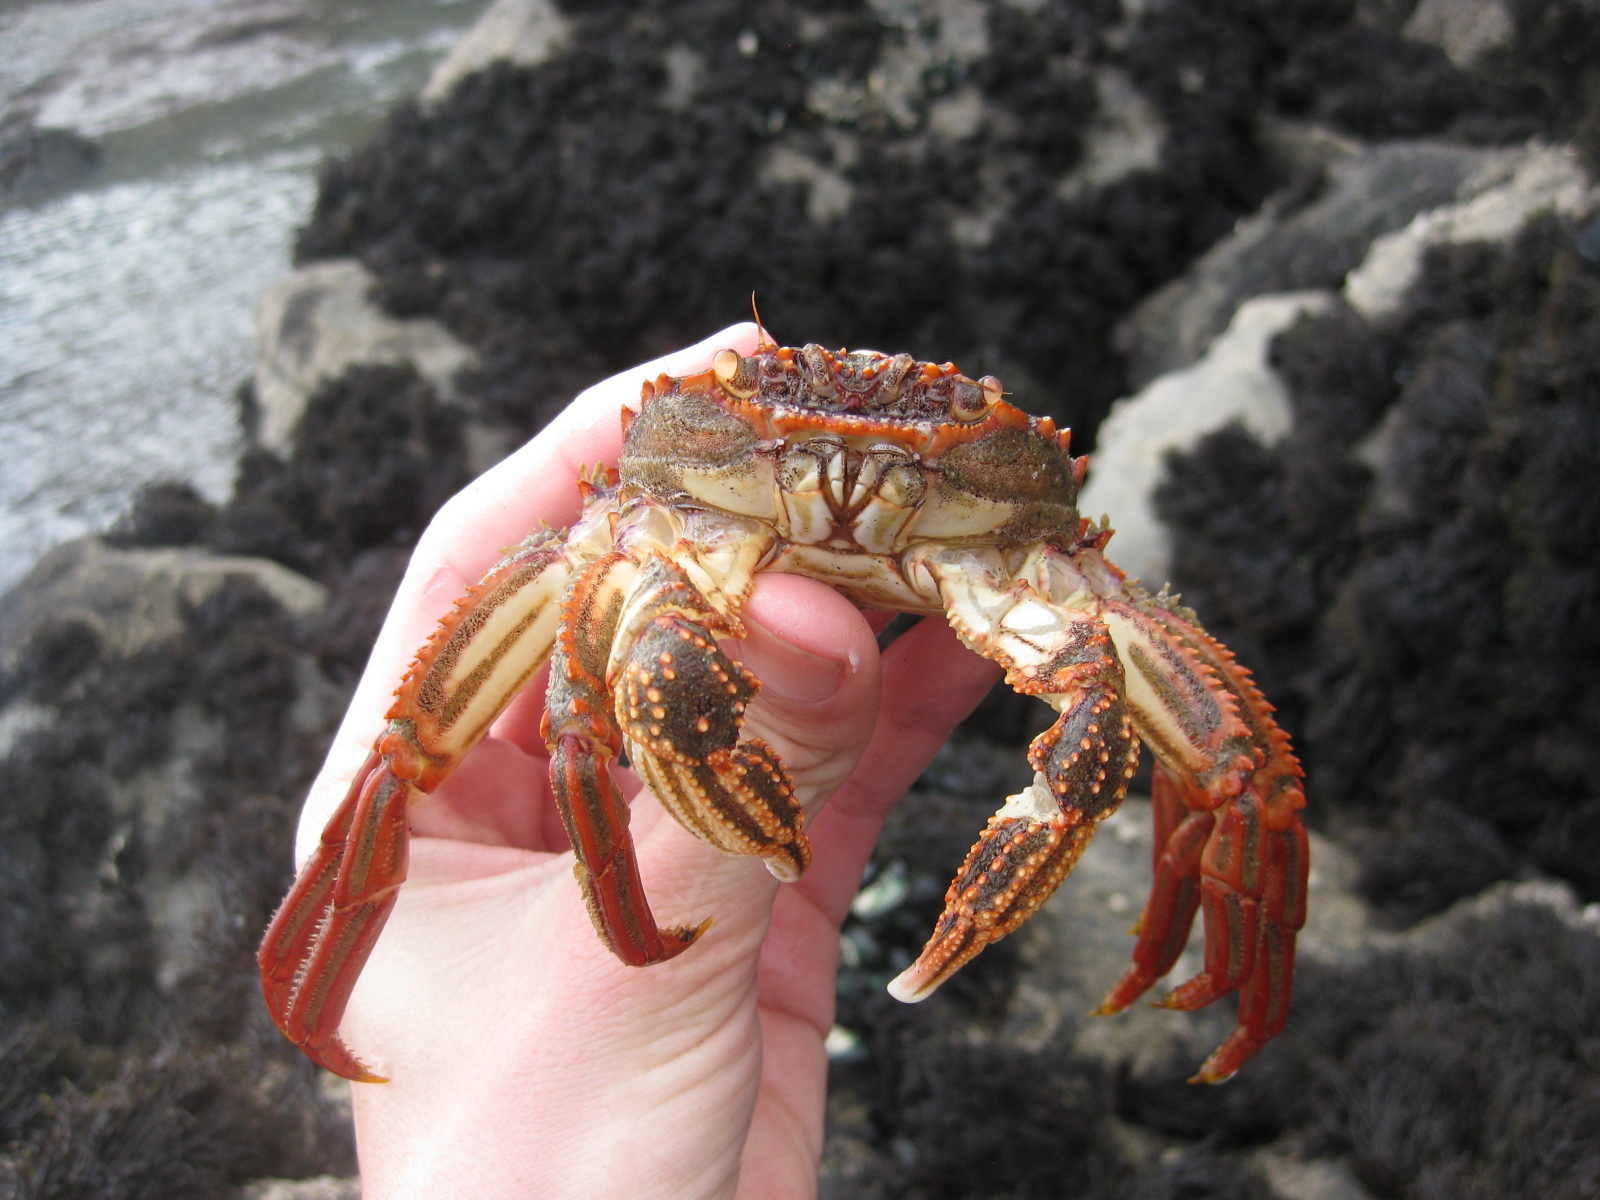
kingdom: Animalia
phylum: Arthropoda
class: Malacostraca
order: Decapoda
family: Plagusiidae
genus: Guinusia
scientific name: Guinusia chabrus
